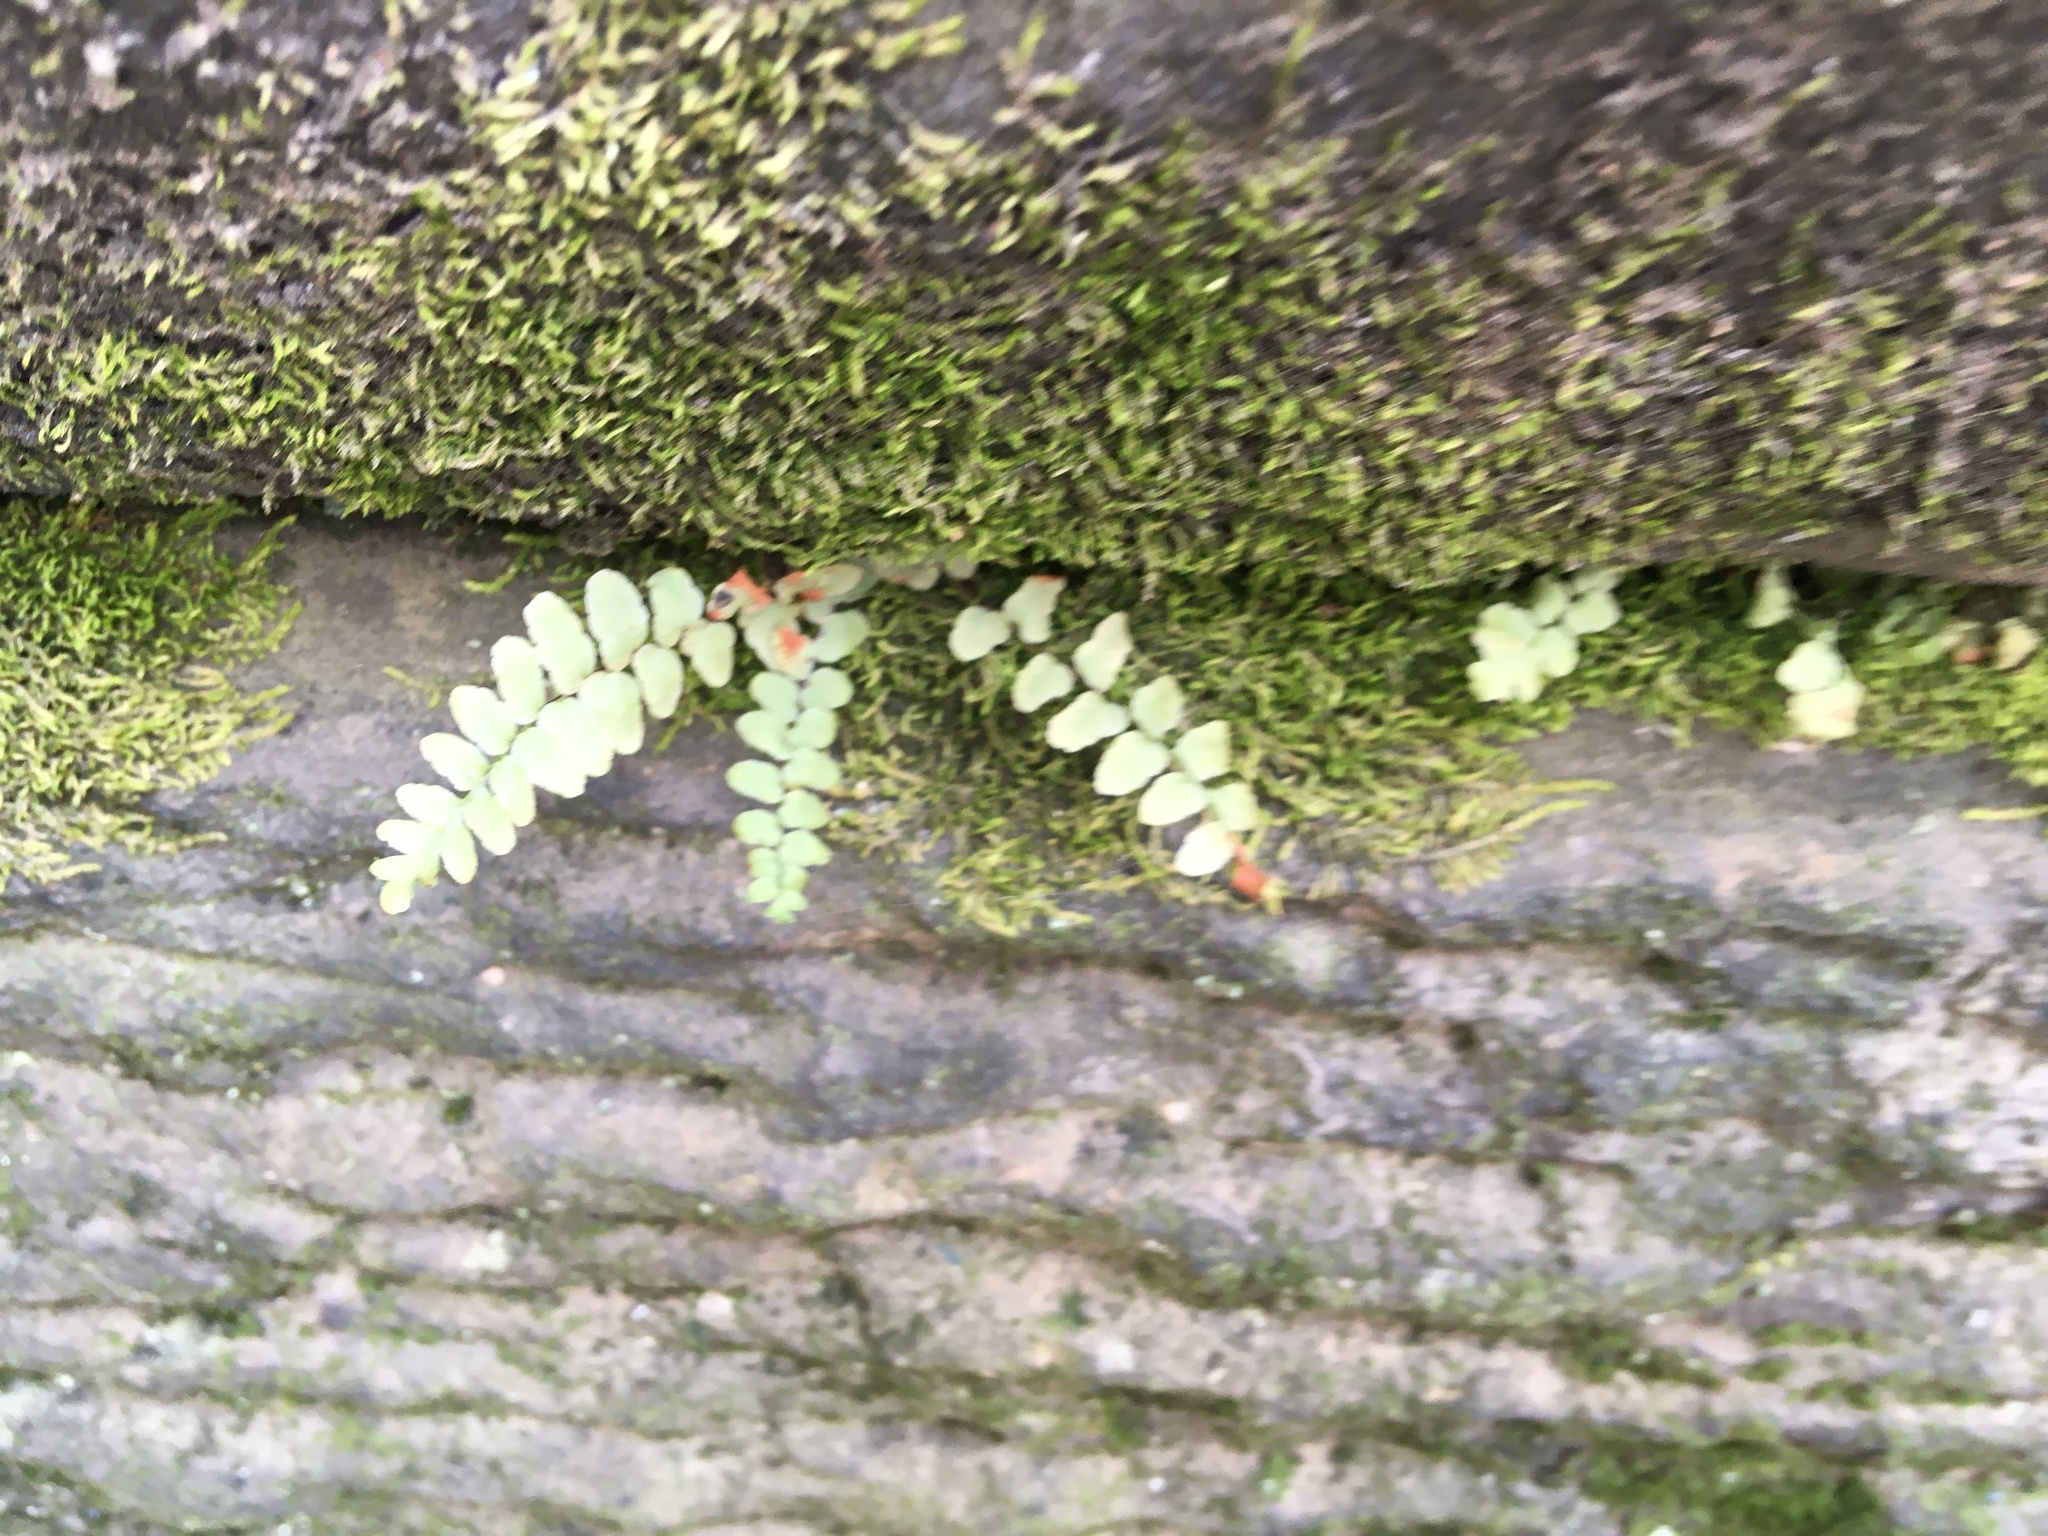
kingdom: Plantae
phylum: Tracheophyta
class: Polypodiopsida
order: Polypodiales
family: Aspleniaceae
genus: Asplenium
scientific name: Asplenium platyneuron
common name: Ebony spleenwort
